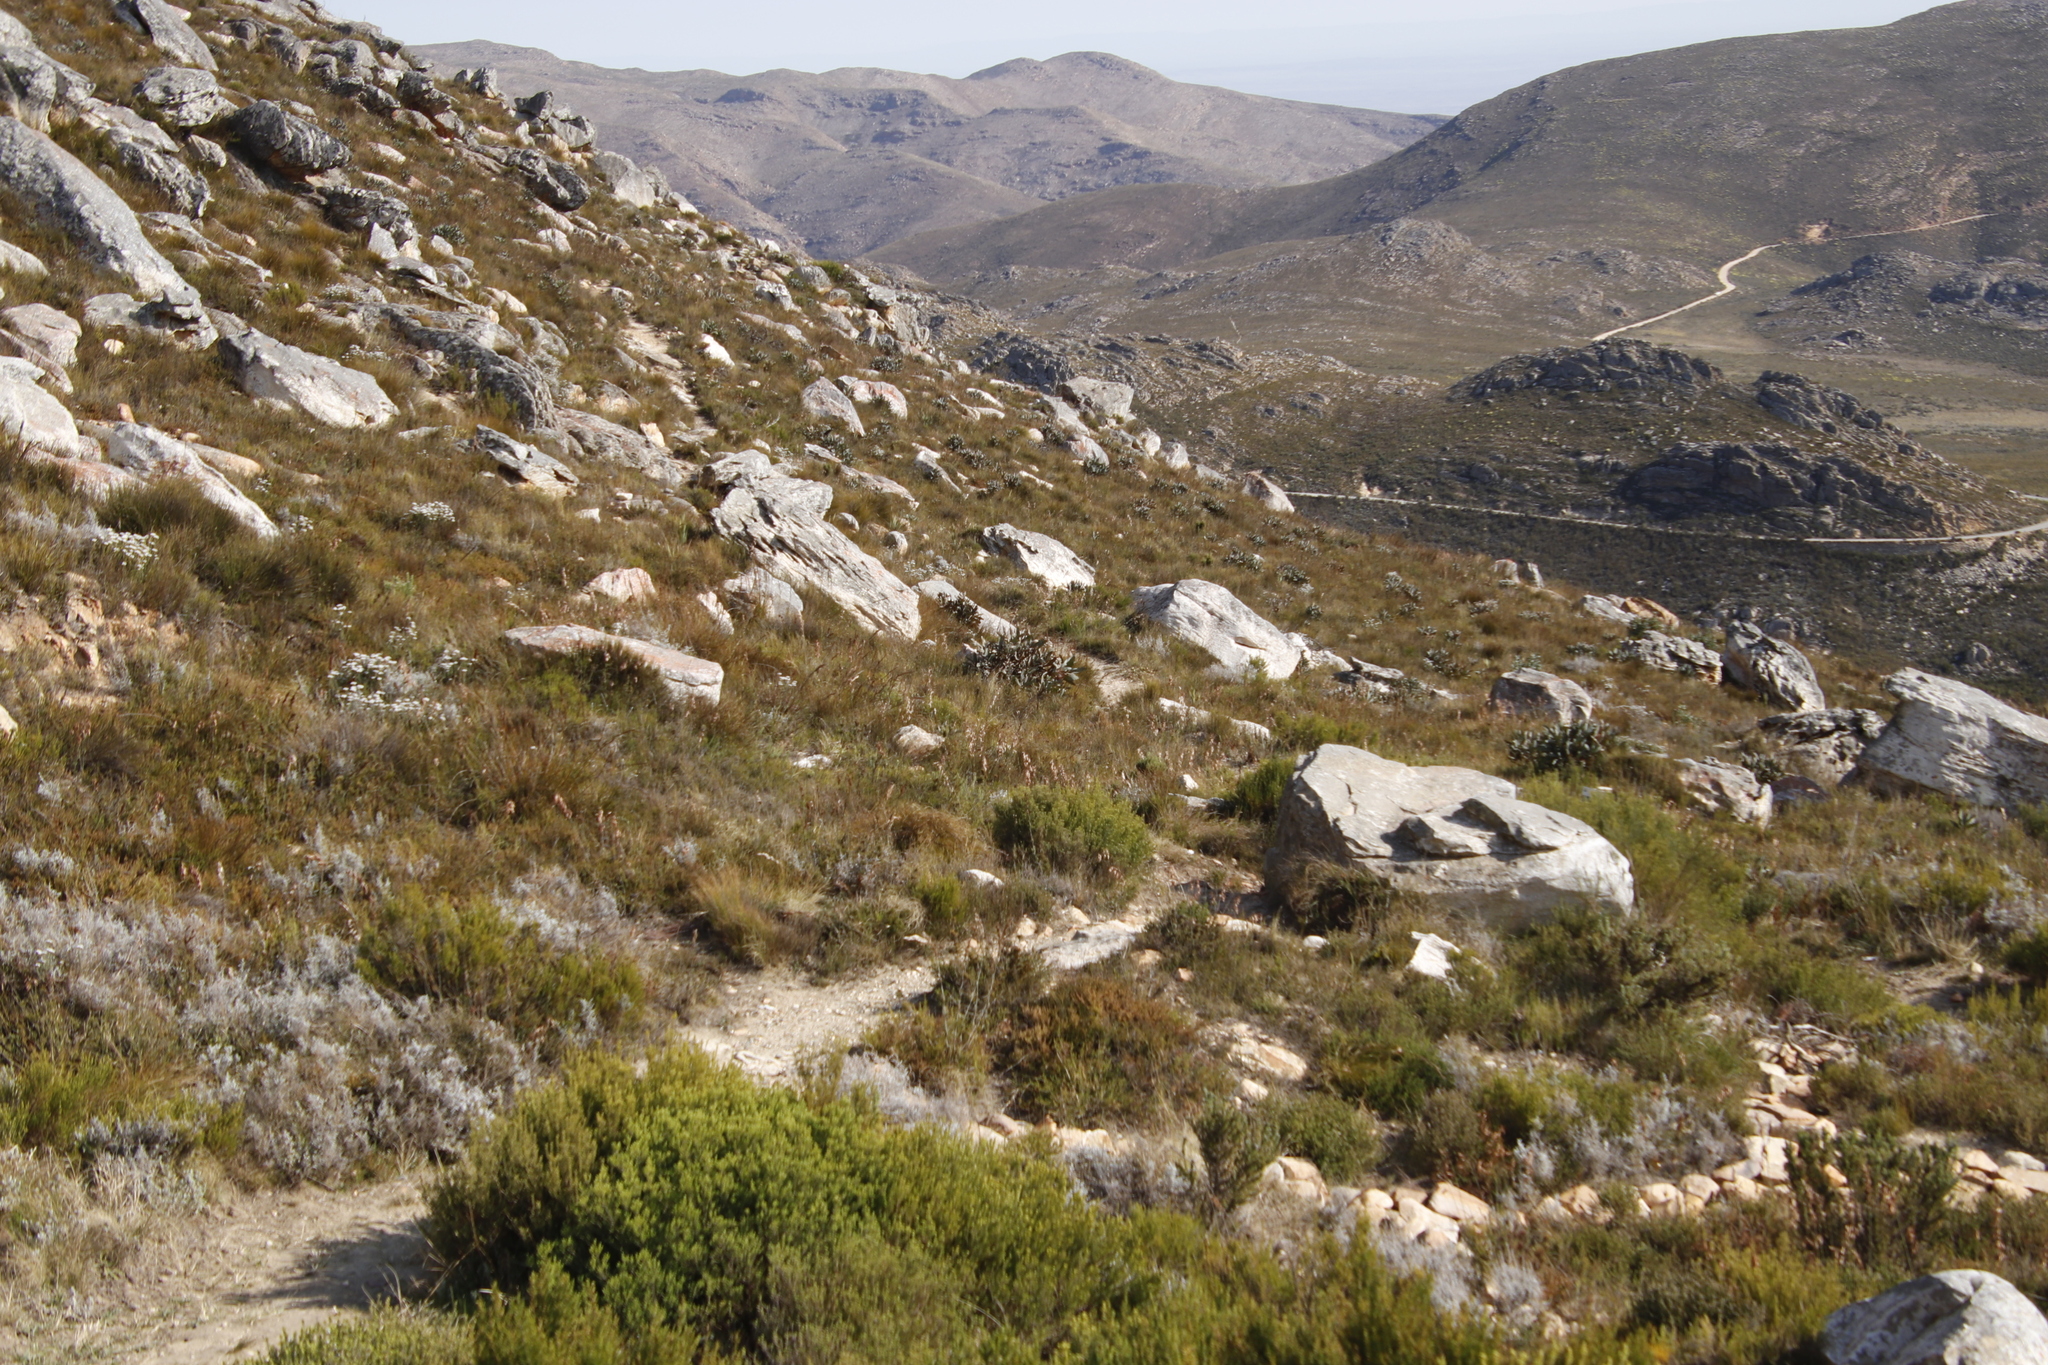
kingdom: Plantae
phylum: Tracheophyta
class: Magnoliopsida
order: Proteales
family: Proteaceae
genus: Protea
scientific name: Protea lorifolia
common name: Strap-leaved protea
